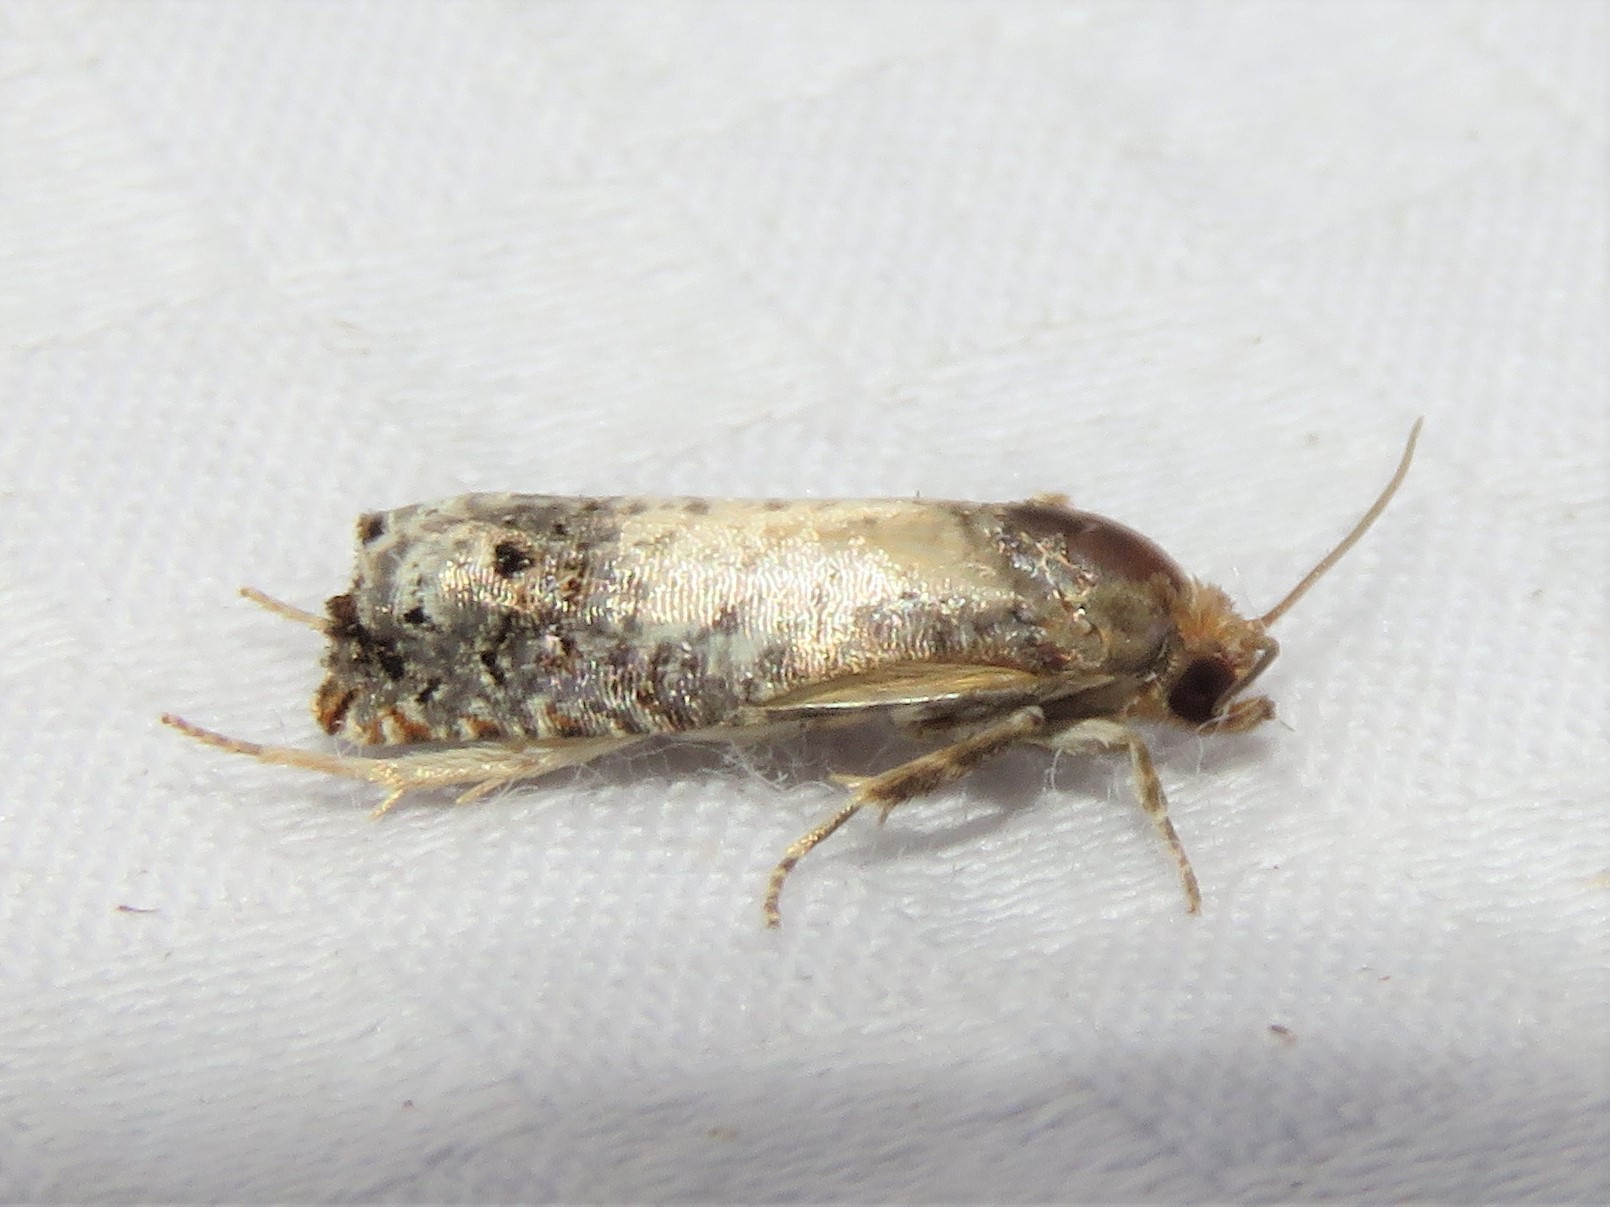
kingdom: Animalia
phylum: Arthropoda
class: Insecta
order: Lepidoptera
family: Tortricidae
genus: Epiblema
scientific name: Epiblema scudderiana
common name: Goldenrod gall moth
